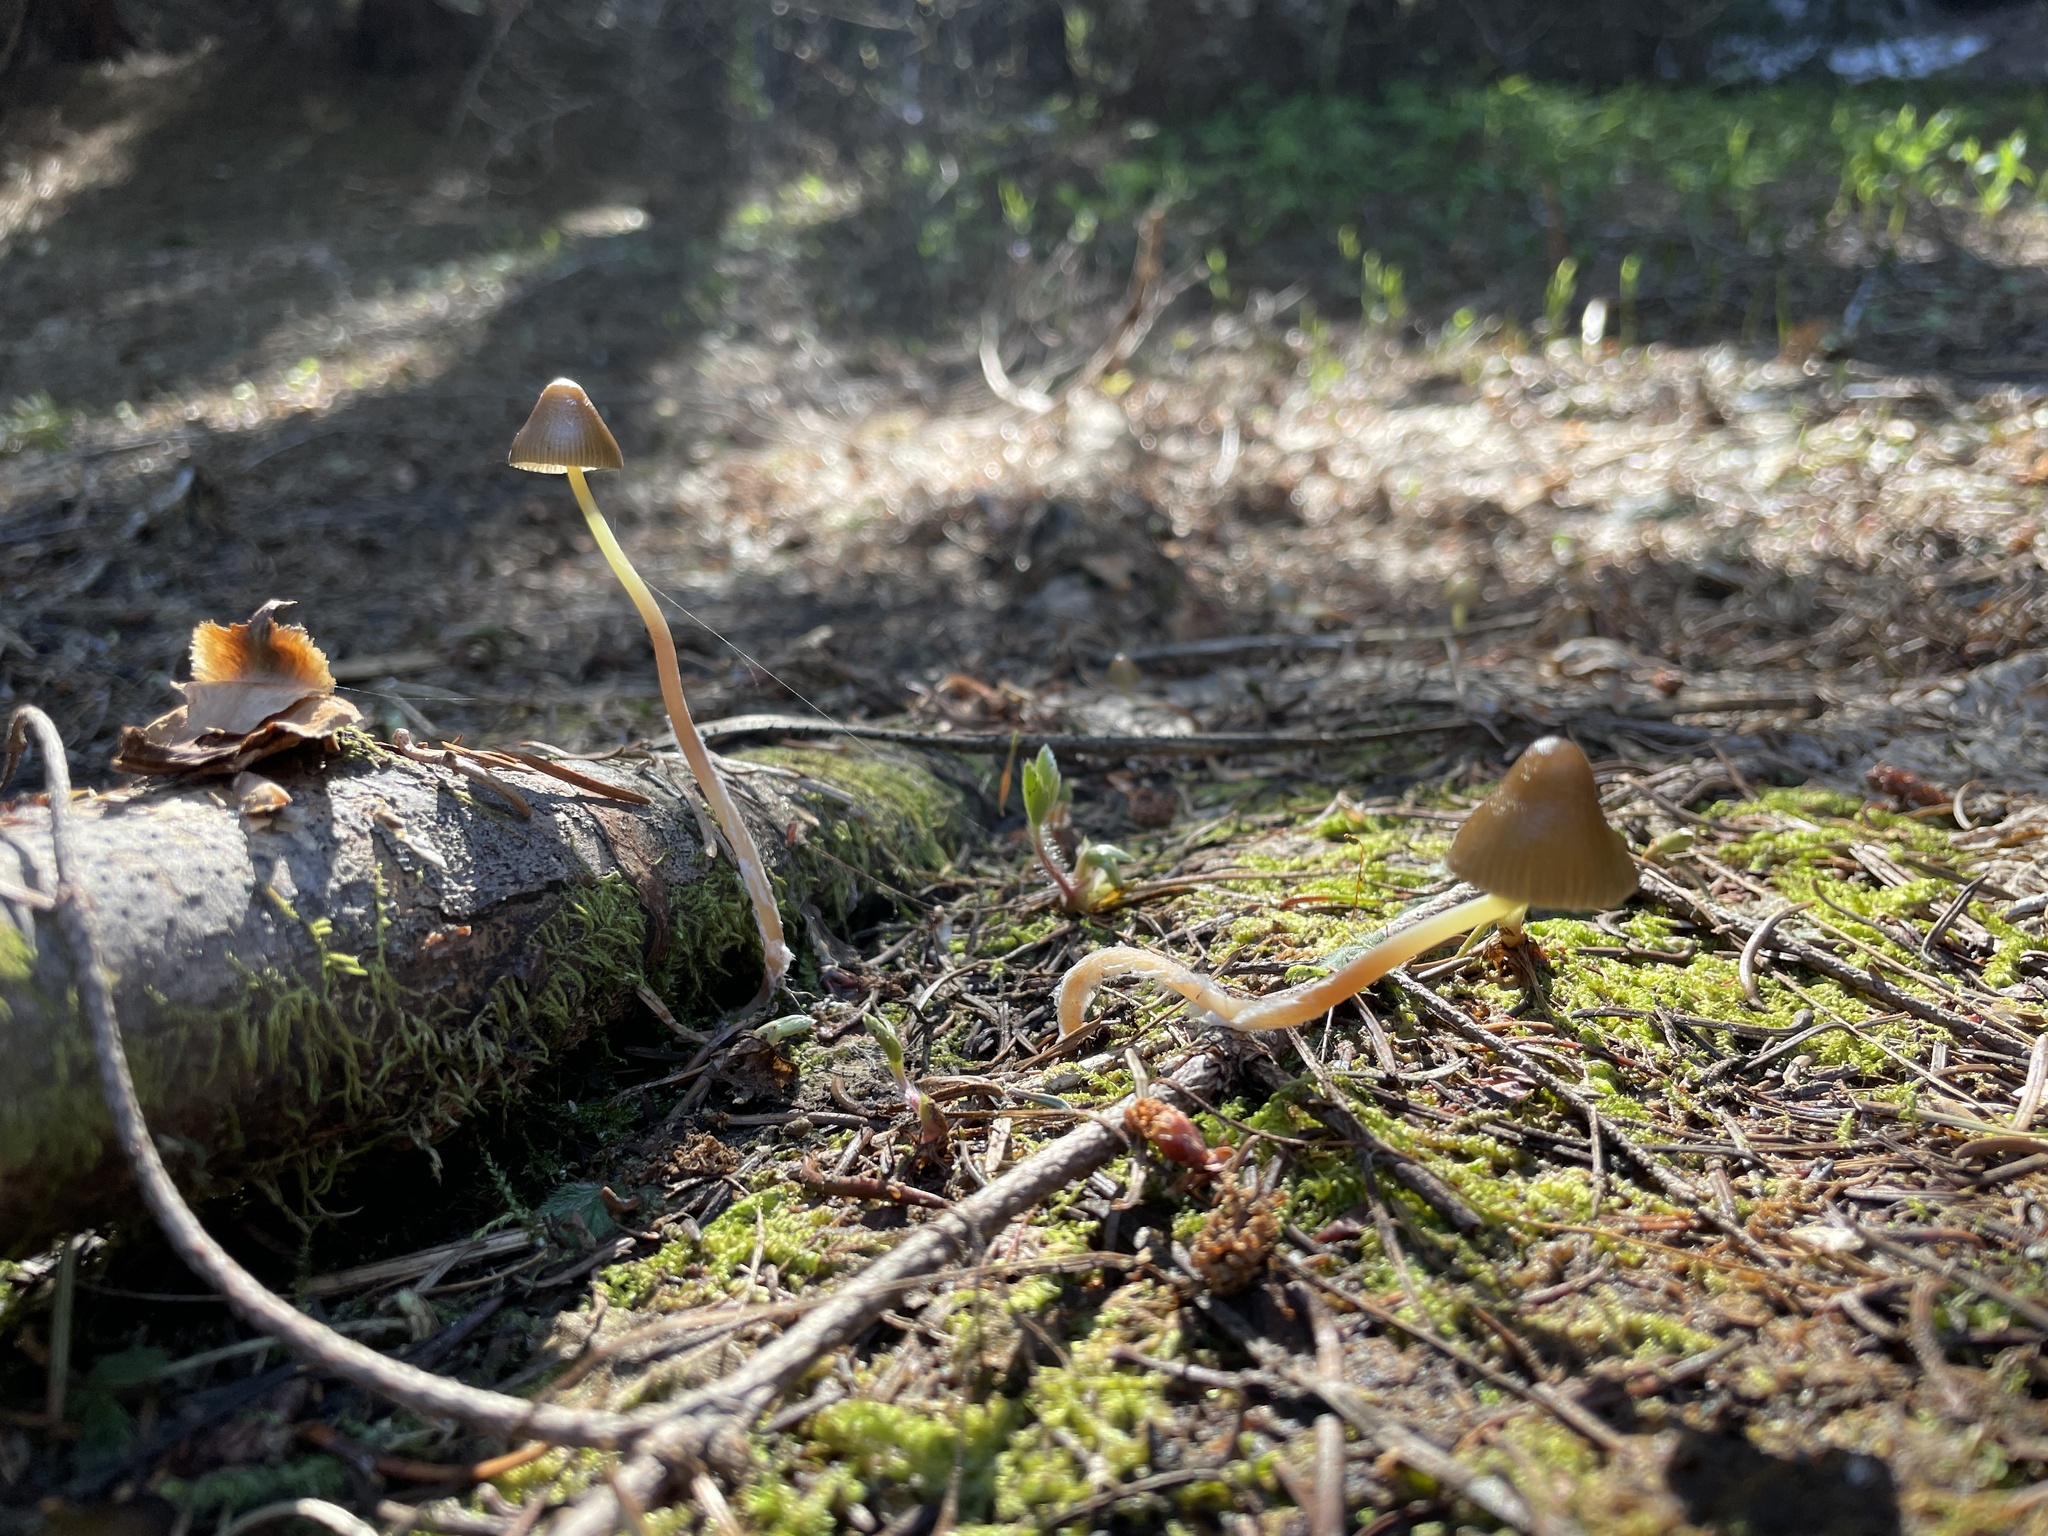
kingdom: Fungi
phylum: Basidiomycota
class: Agaricomycetes
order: Agaricales
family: Mycenaceae
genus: Mycena
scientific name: Mycena nivicola
